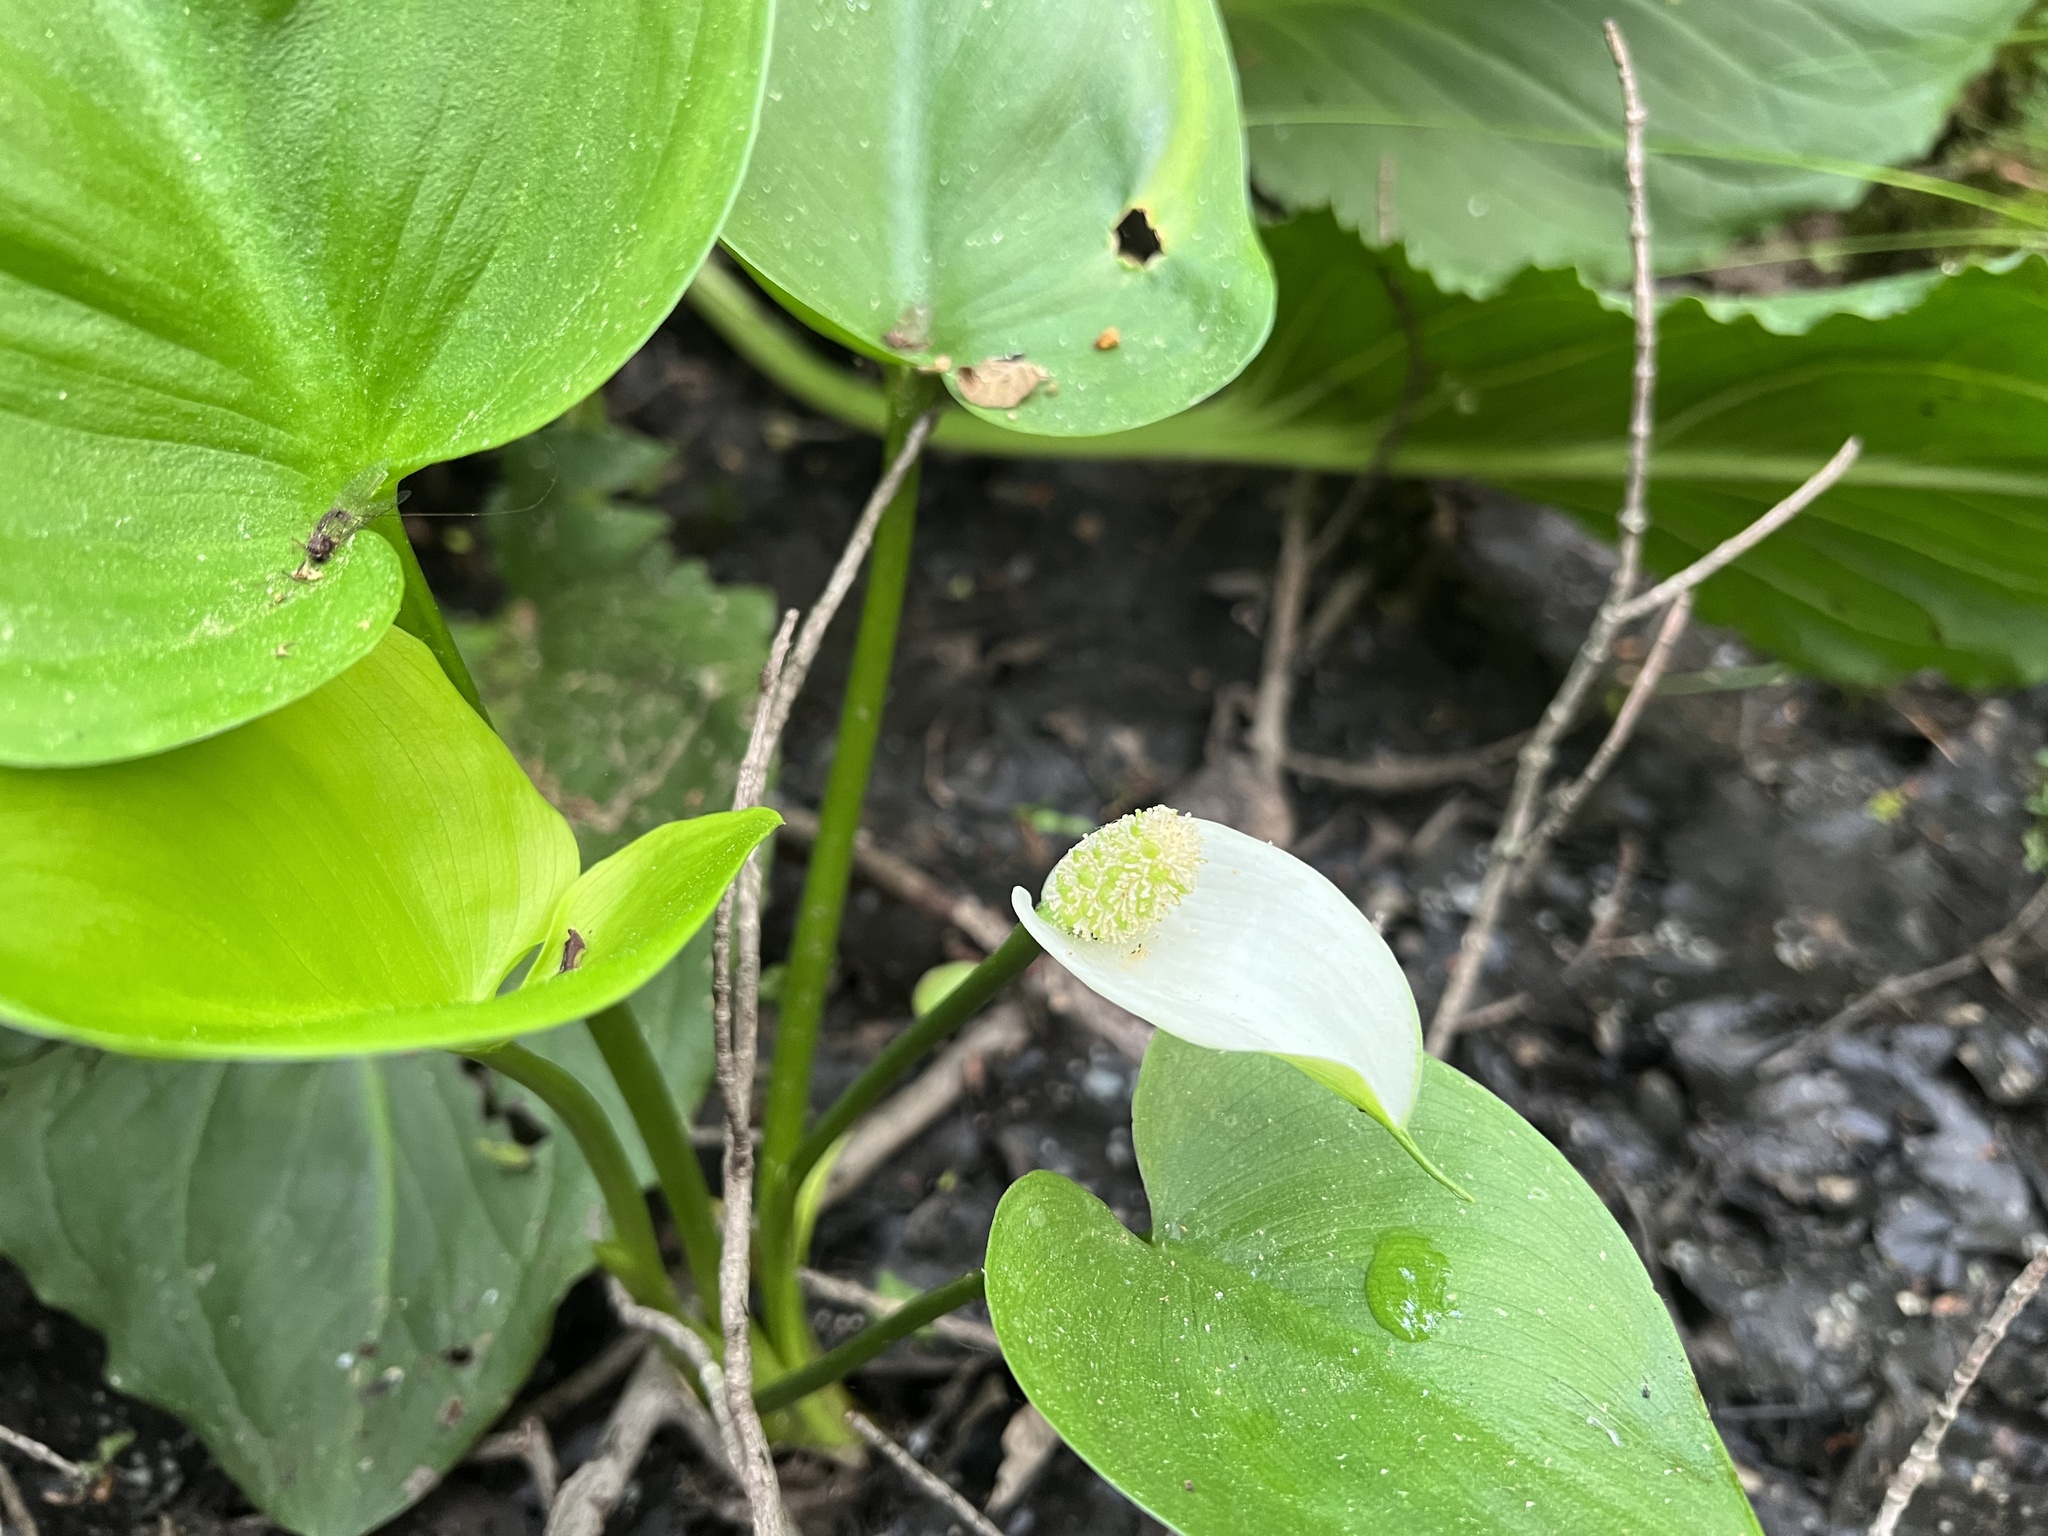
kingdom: Plantae
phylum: Tracheophyta
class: Liliopsida
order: Alismatales
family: Araceae
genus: Calla
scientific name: Calla palustris
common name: Bog arum
